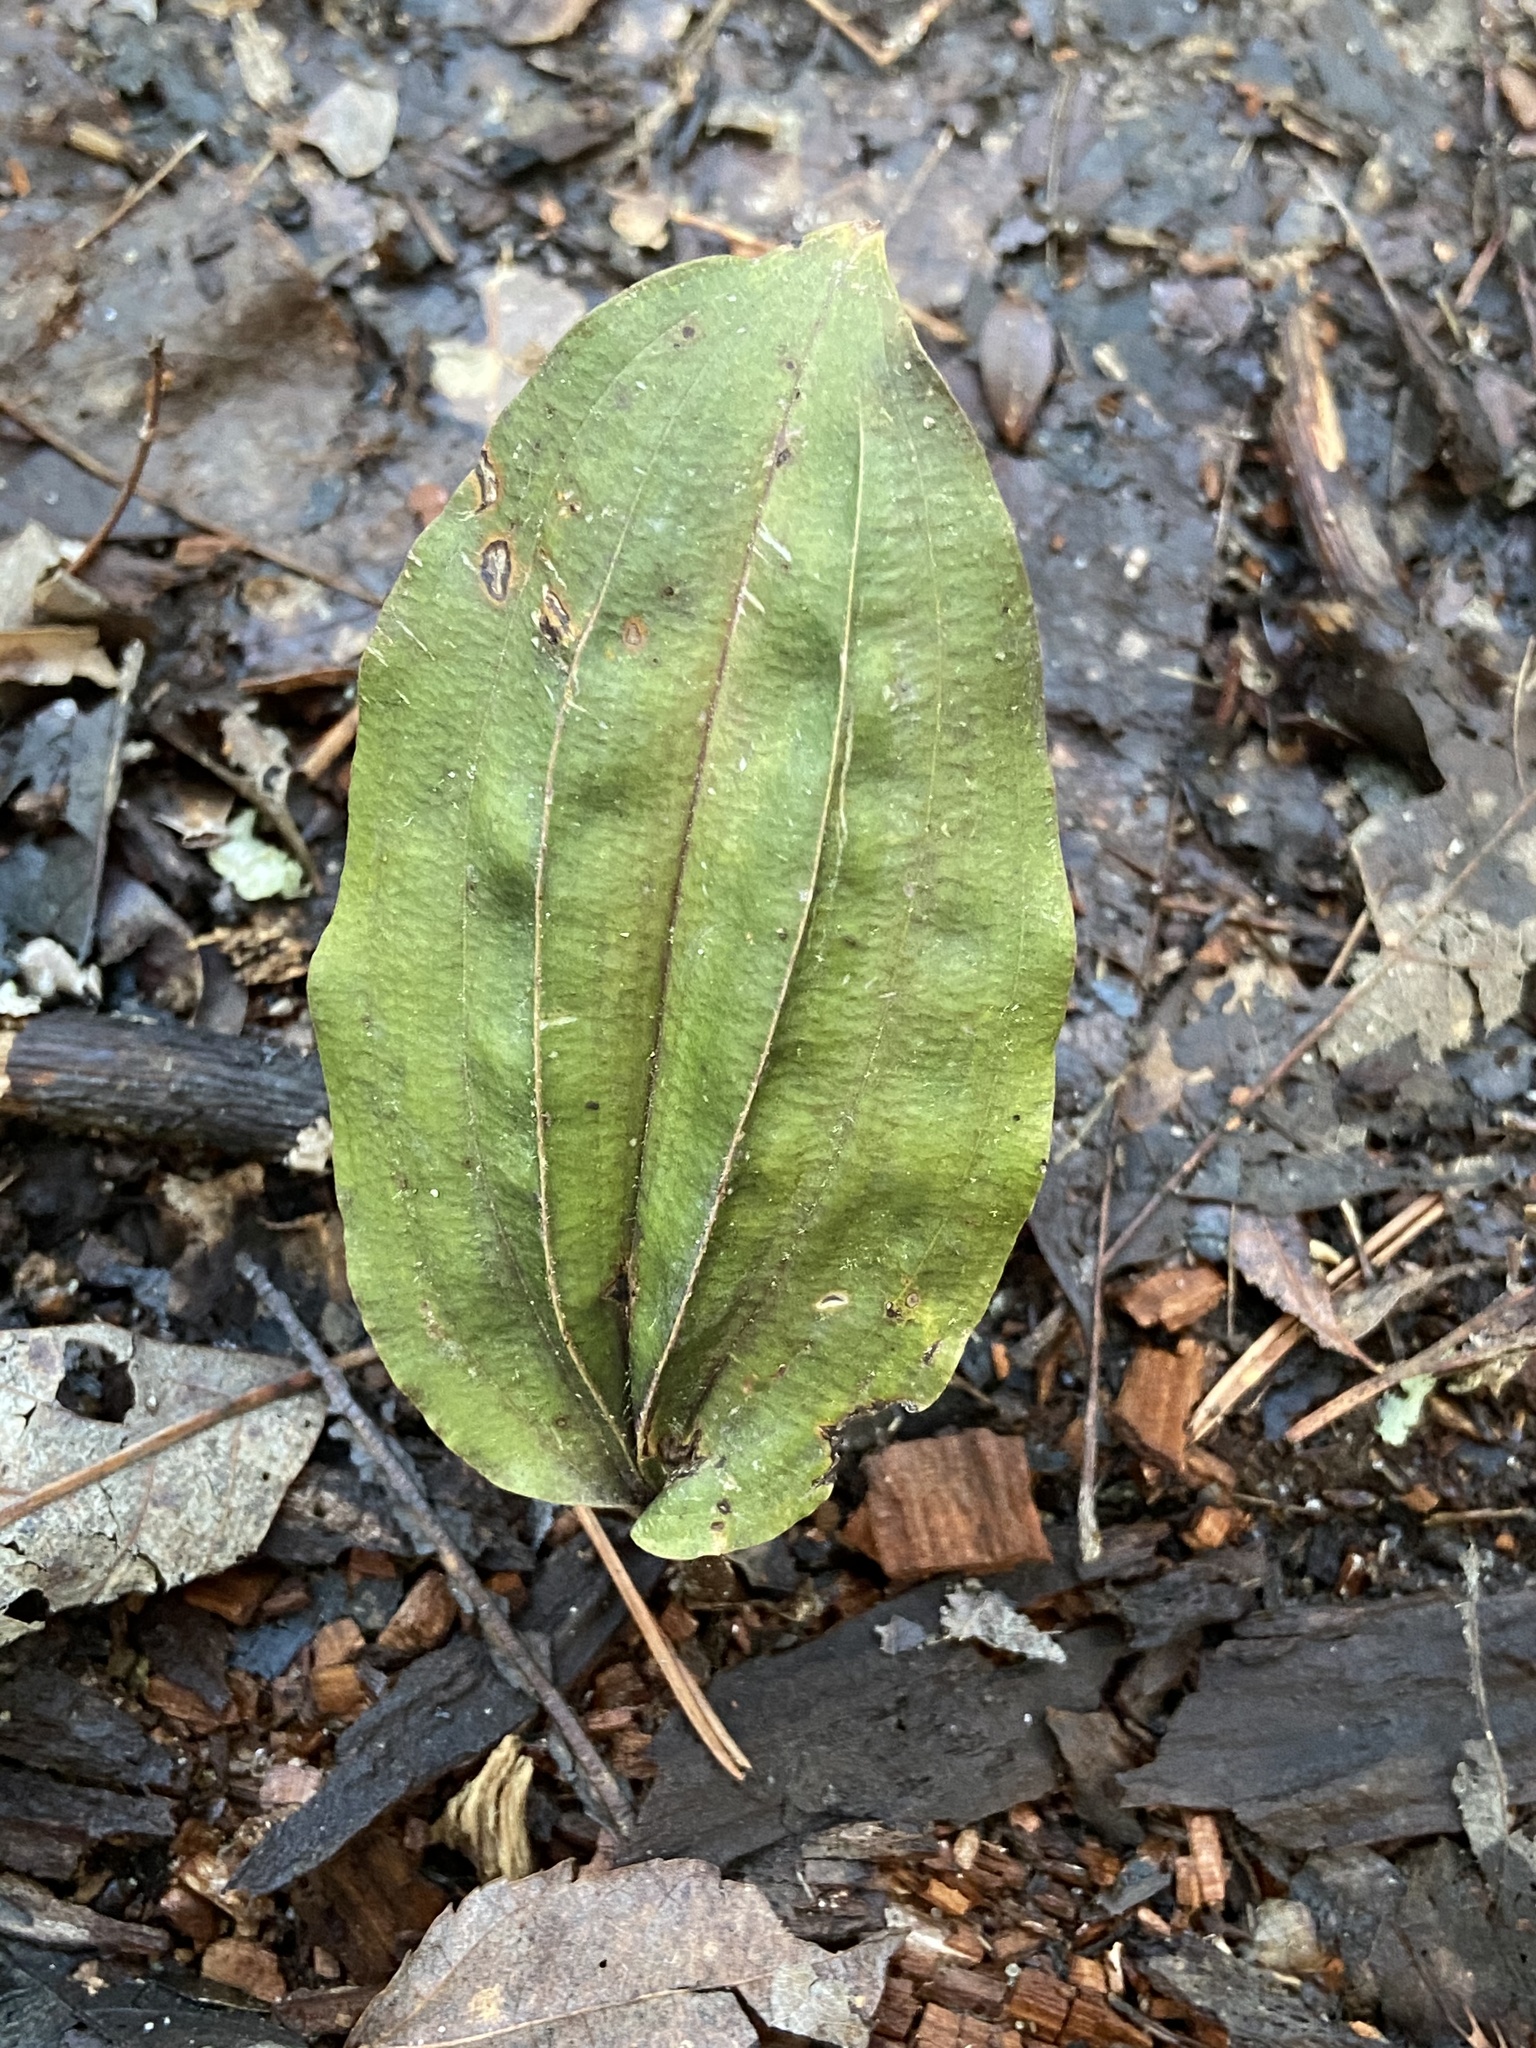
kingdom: Plantae
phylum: Tracheophyta
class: Liliopsida
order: Asparagales
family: Orchidaceae
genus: Tipularia
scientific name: Tipularia discolor
